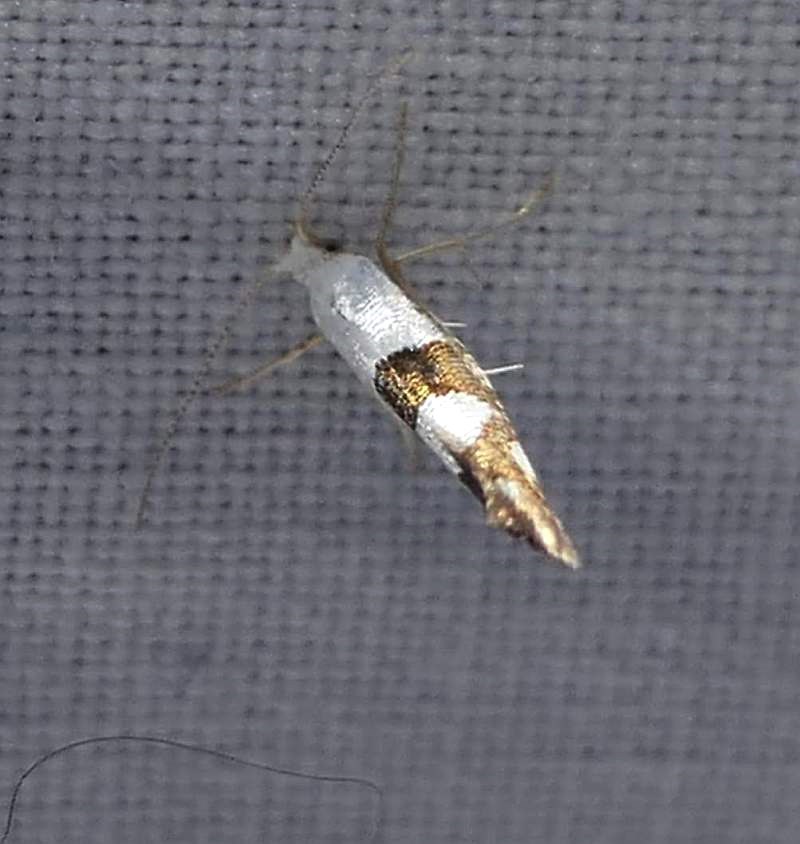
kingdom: Animalia
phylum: Arthropoda
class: Insecta
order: Lepidoptera
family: Argyresthiidae
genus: Argyresthia
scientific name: Argyresthia oreasella
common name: Cherry shoot borer moth
